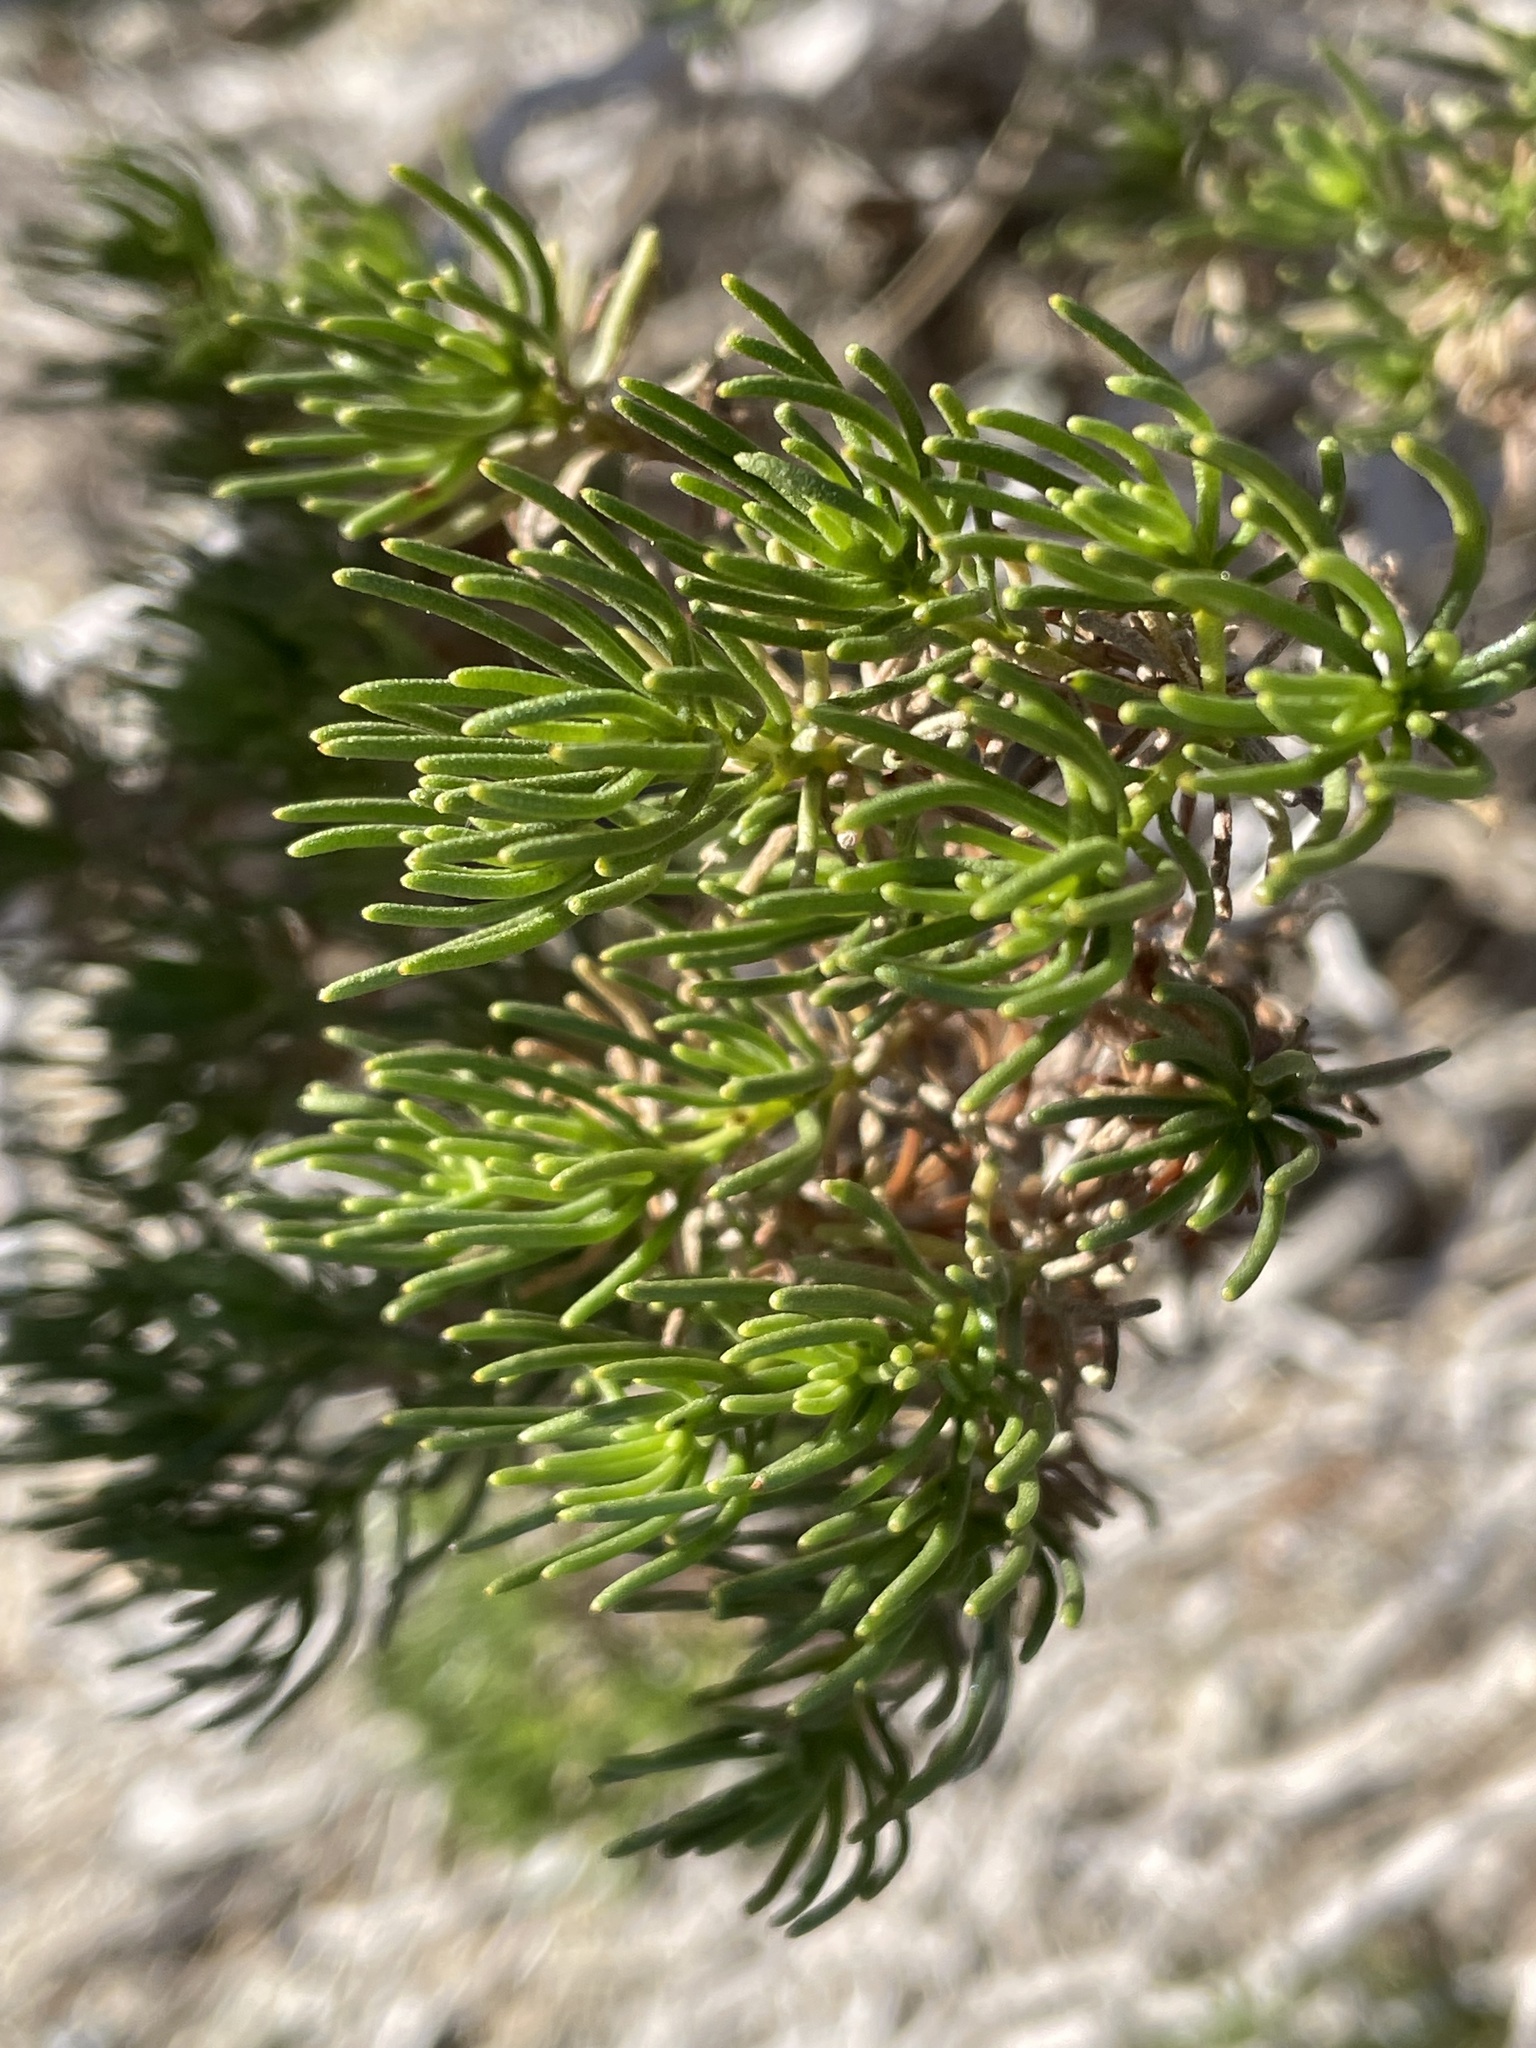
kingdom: Plantae
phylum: Tracheophyta
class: Magnoliopsida
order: Asterales
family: Asteraceae
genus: Peucephyllum
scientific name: Peucephyllum schottii
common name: Pygmy-cedar
